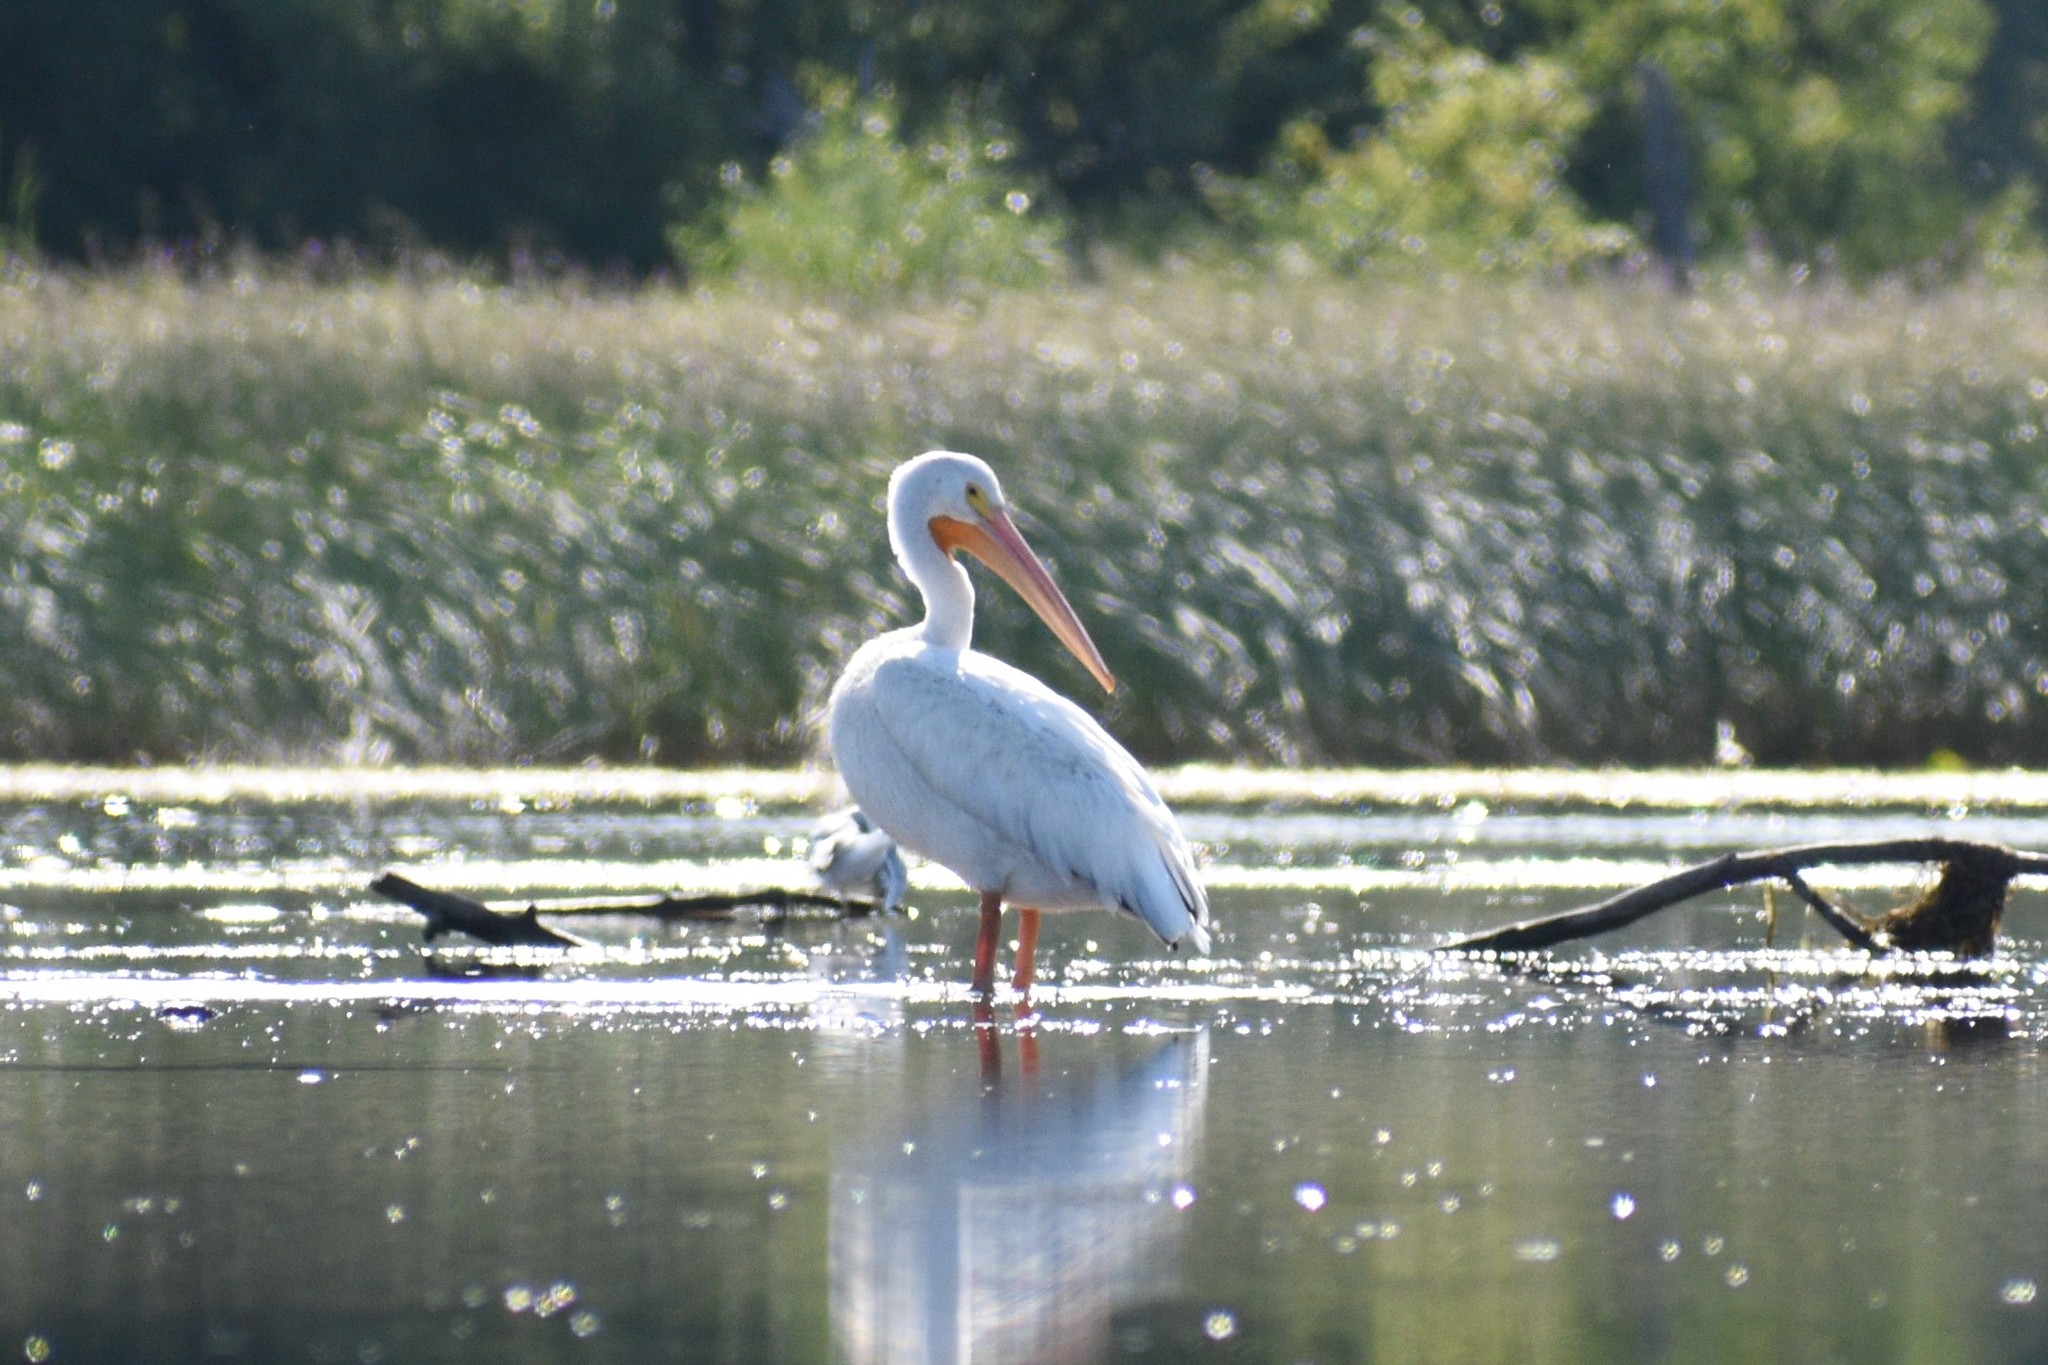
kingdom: Animalia
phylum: Chordata
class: Aves
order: Pelecaniformes
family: Pelecanidae
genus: Pelecanus
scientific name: Pelecanus erythrorhynchos
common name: American white pelican
